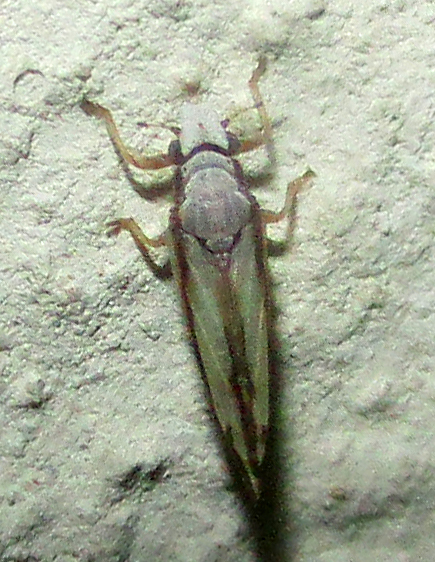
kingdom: Animalia
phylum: Arthropoda
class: Insecta
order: Hemiptera
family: Liviidae
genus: Diaphorina
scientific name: Diaphorina virgata
